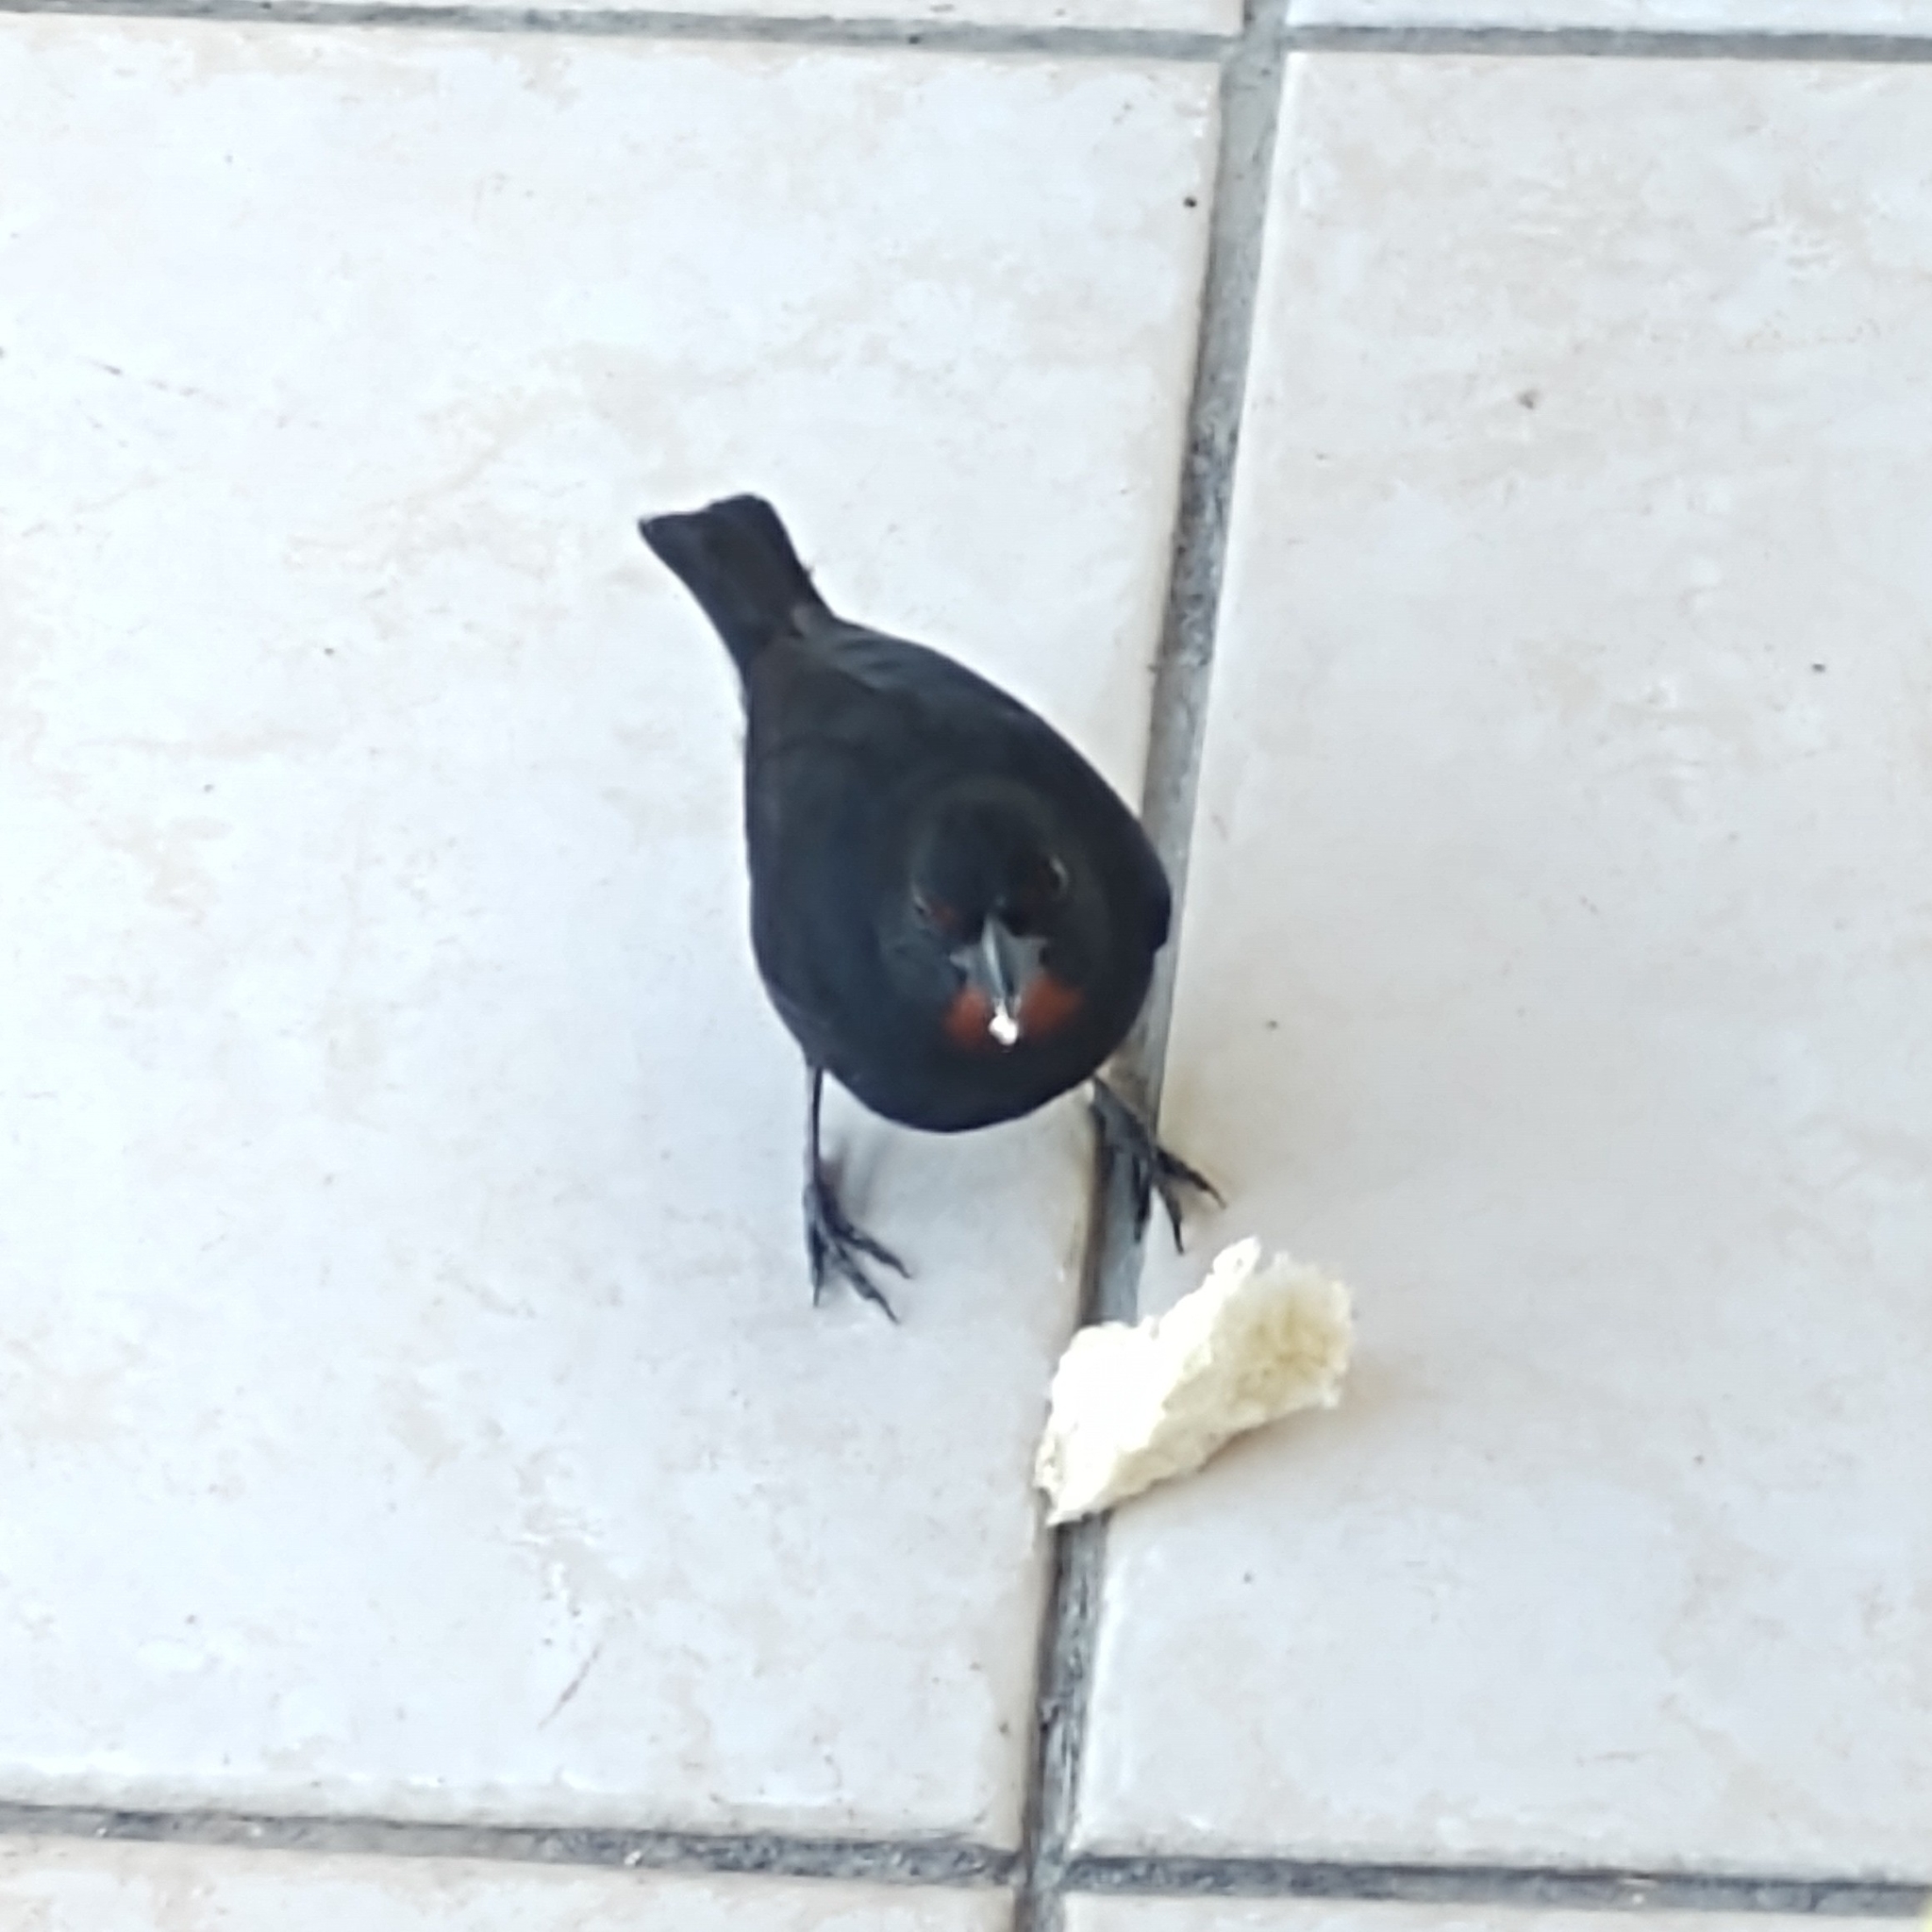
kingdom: Animalia
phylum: Chordata
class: Aves
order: Passeriformes
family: Thraupidae
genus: Loxigilla
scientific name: Loxigilla noctis
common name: Lesser antillean bullfinch
